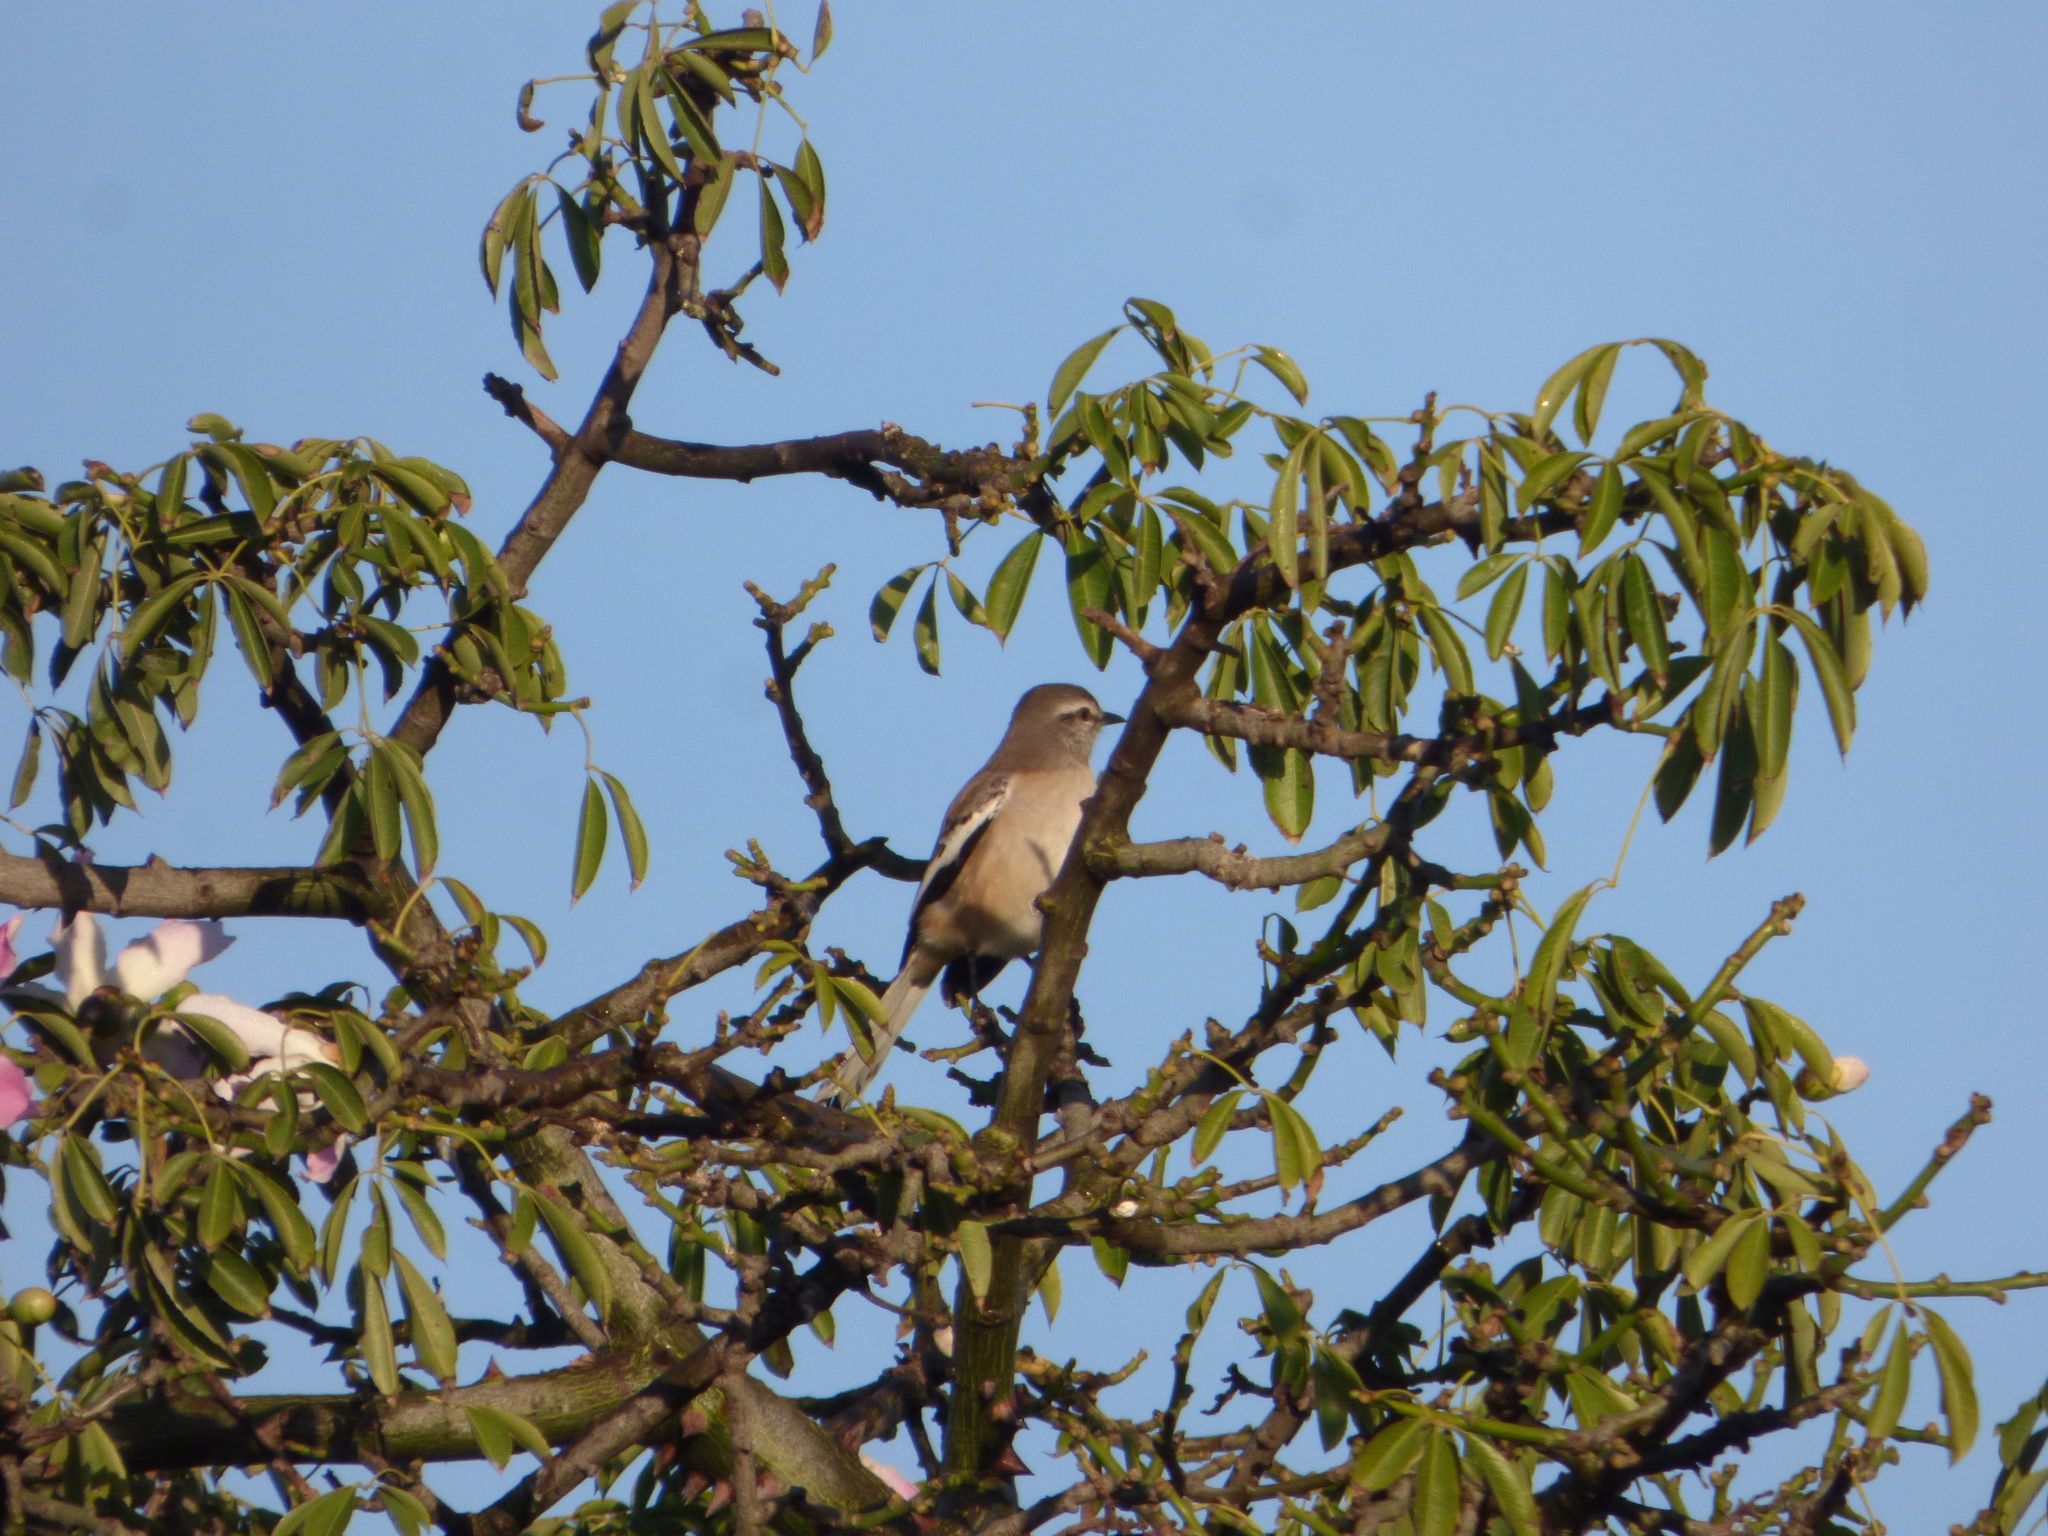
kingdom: Animalia
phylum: Chordata
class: Aves
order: Passeriformes
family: Mimidae
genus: Mimus
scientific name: Mimus triurus
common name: White-banded mockingbird
